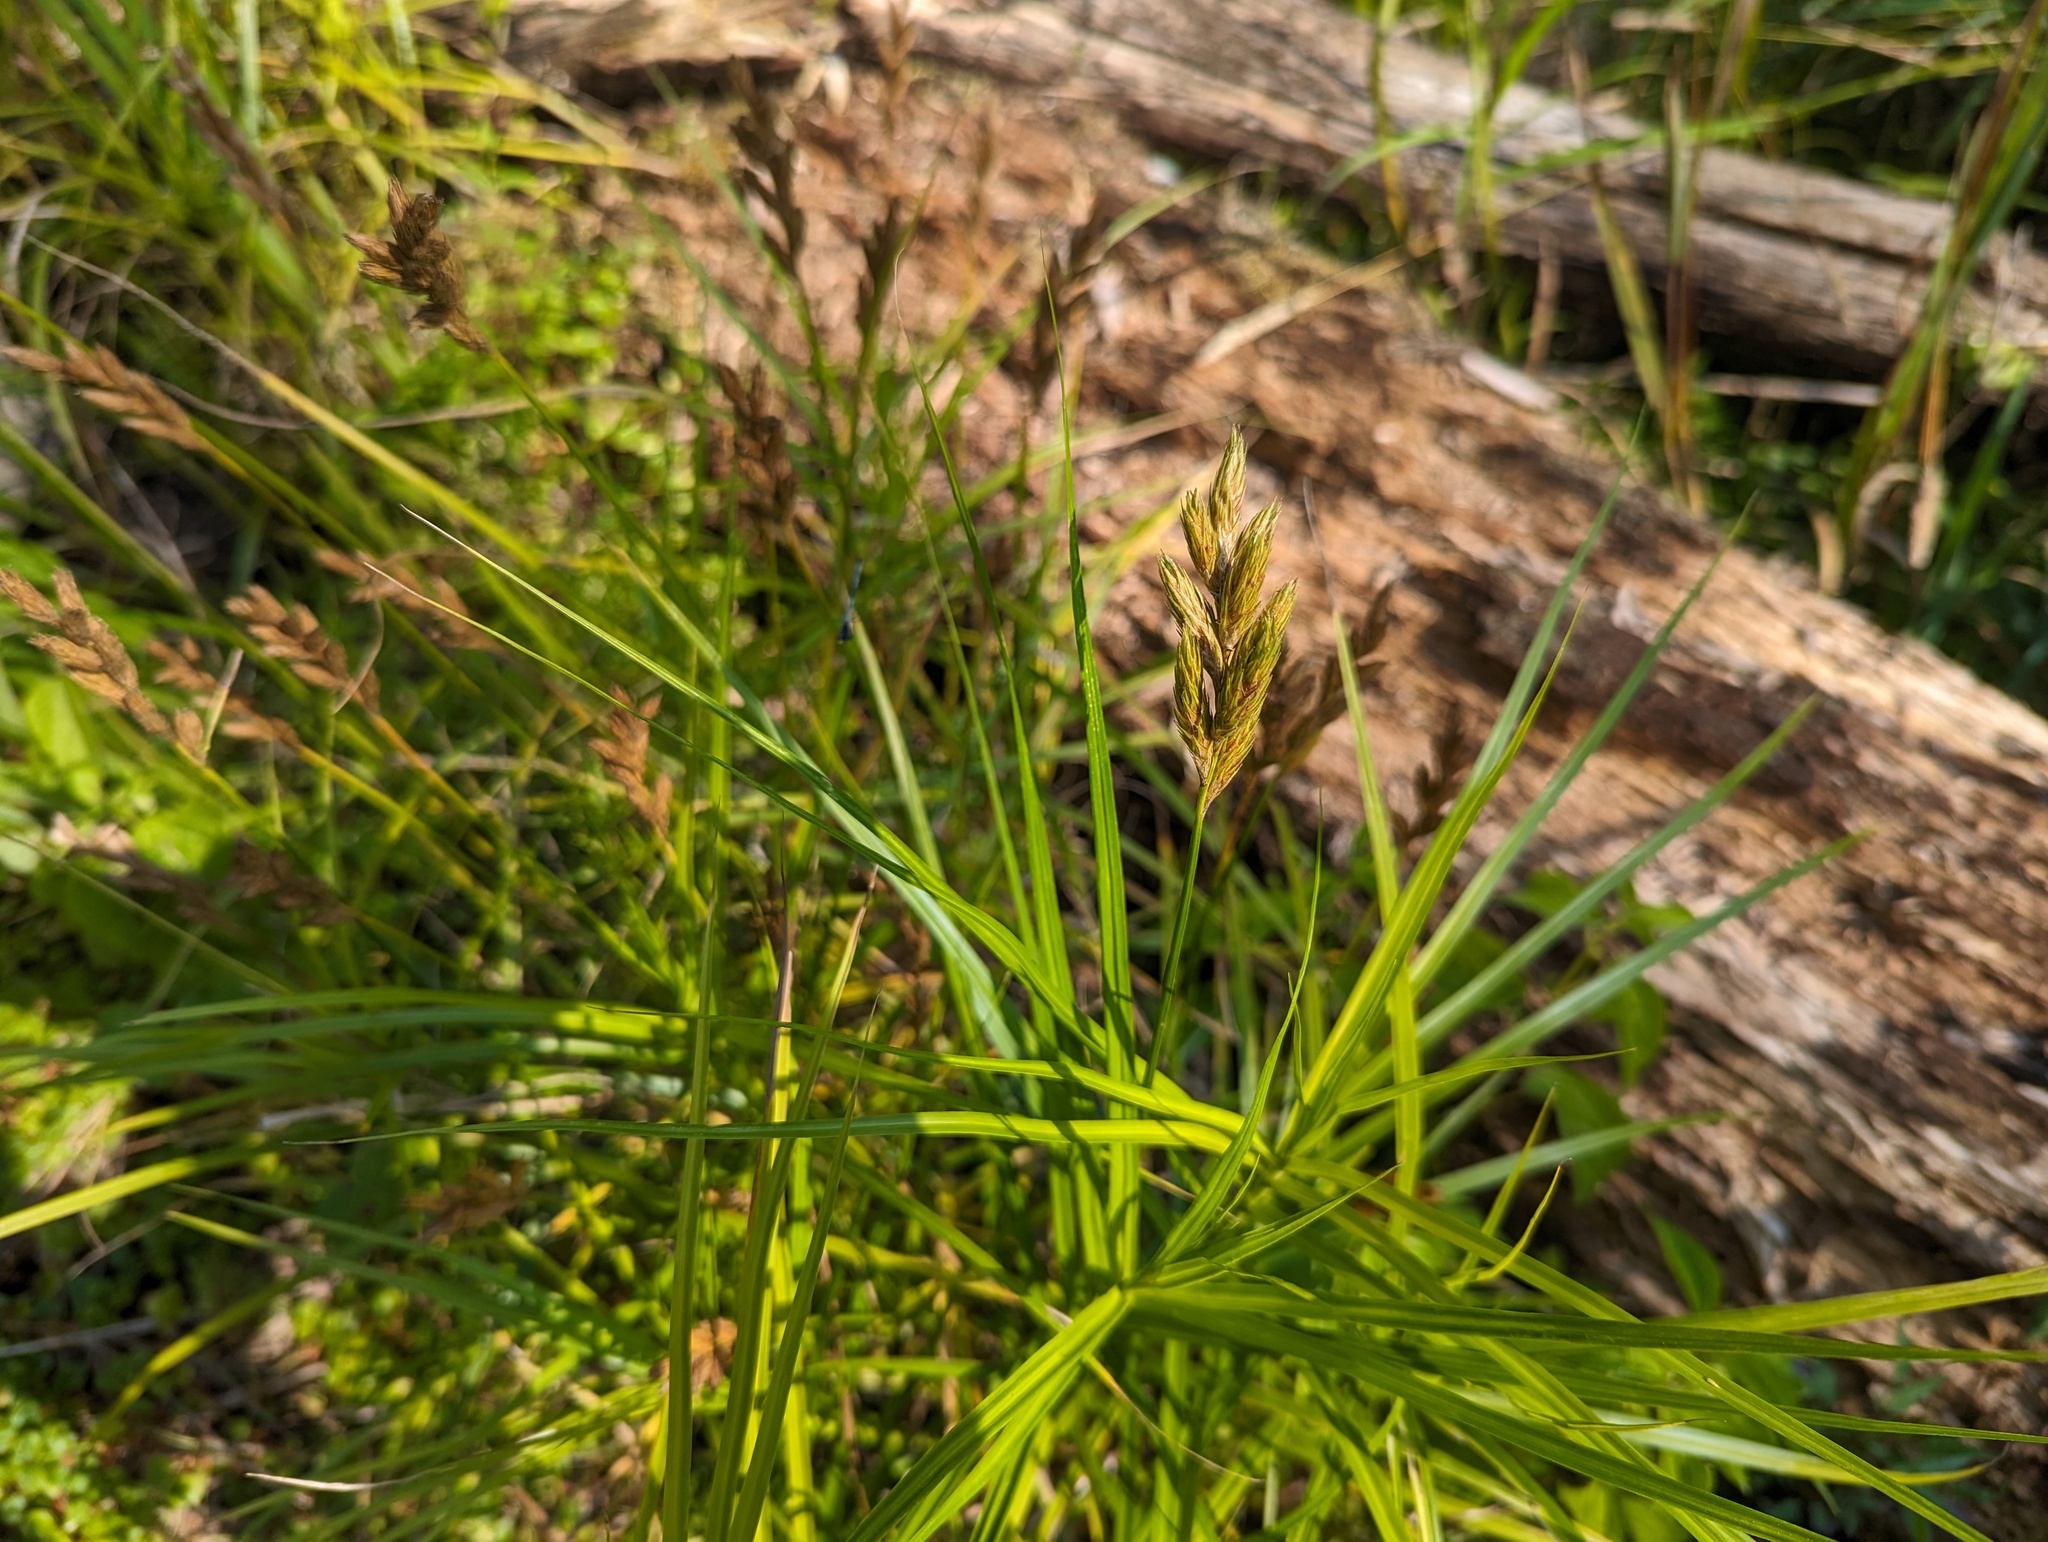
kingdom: Plantae
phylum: Tracheophyta
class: Liliopsida
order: Poales
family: Cyperaceae
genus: Carex
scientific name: Carex muskingumensis
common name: Muskingum sedge
